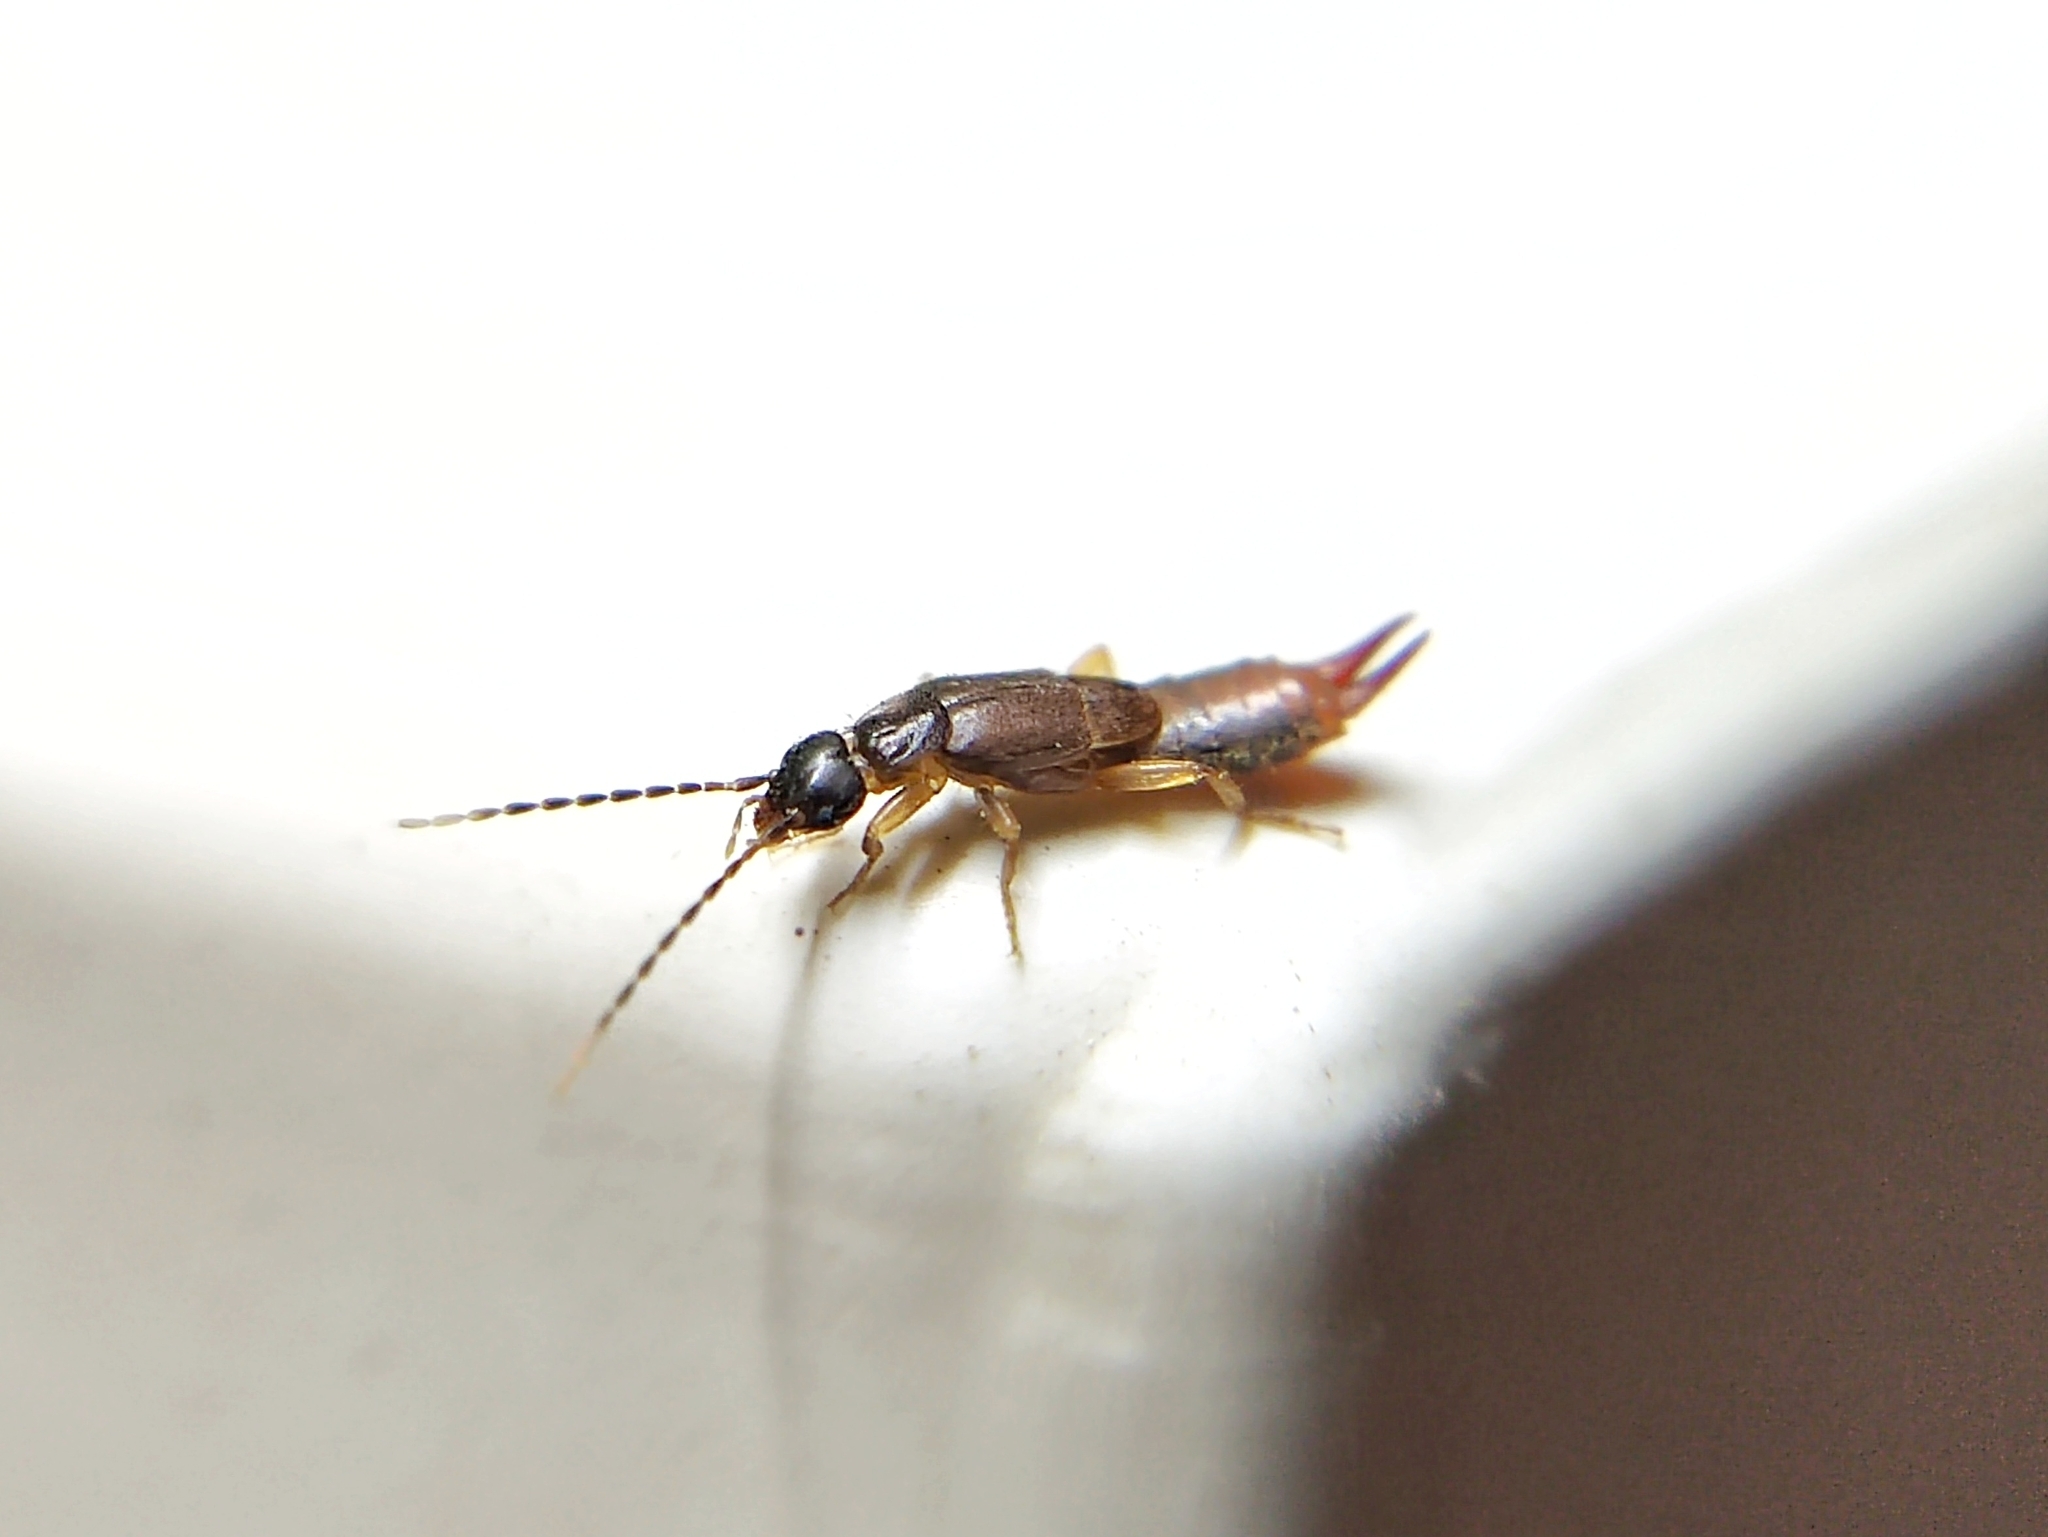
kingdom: Animalia
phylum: Arthropoda
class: Insecta
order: Dermaptera
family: Spongiphoridae
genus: Labia
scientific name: Labia minor
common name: Lesser earwig
